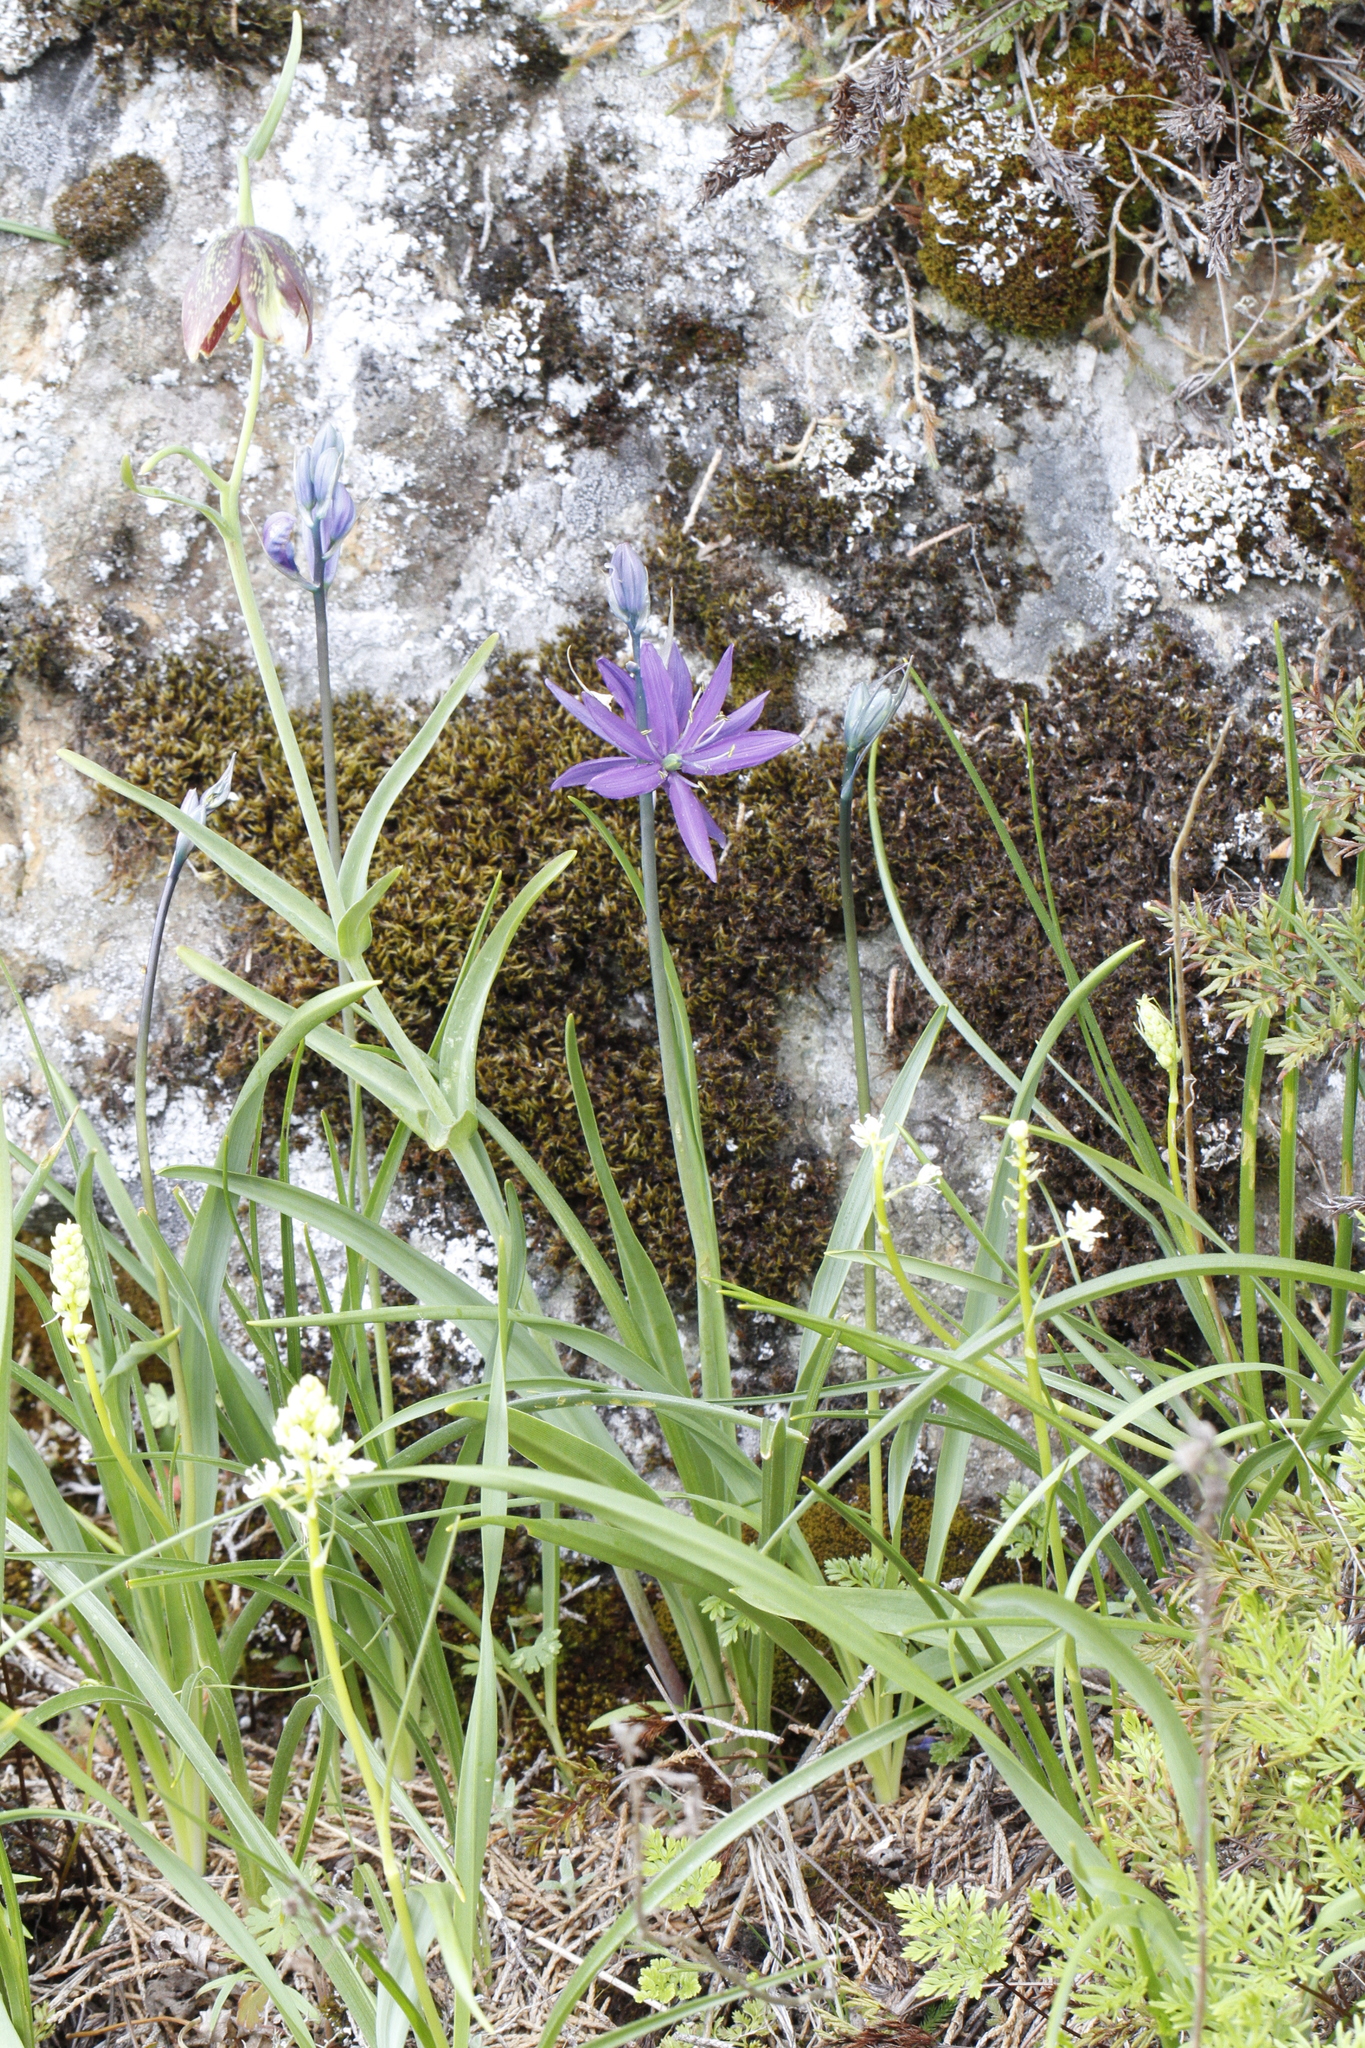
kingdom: Plantae
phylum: Tracheophyta
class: Liliopsida
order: Asparagales
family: Asparagaceae
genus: Camassia
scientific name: Camassia quamash
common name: Common camas
